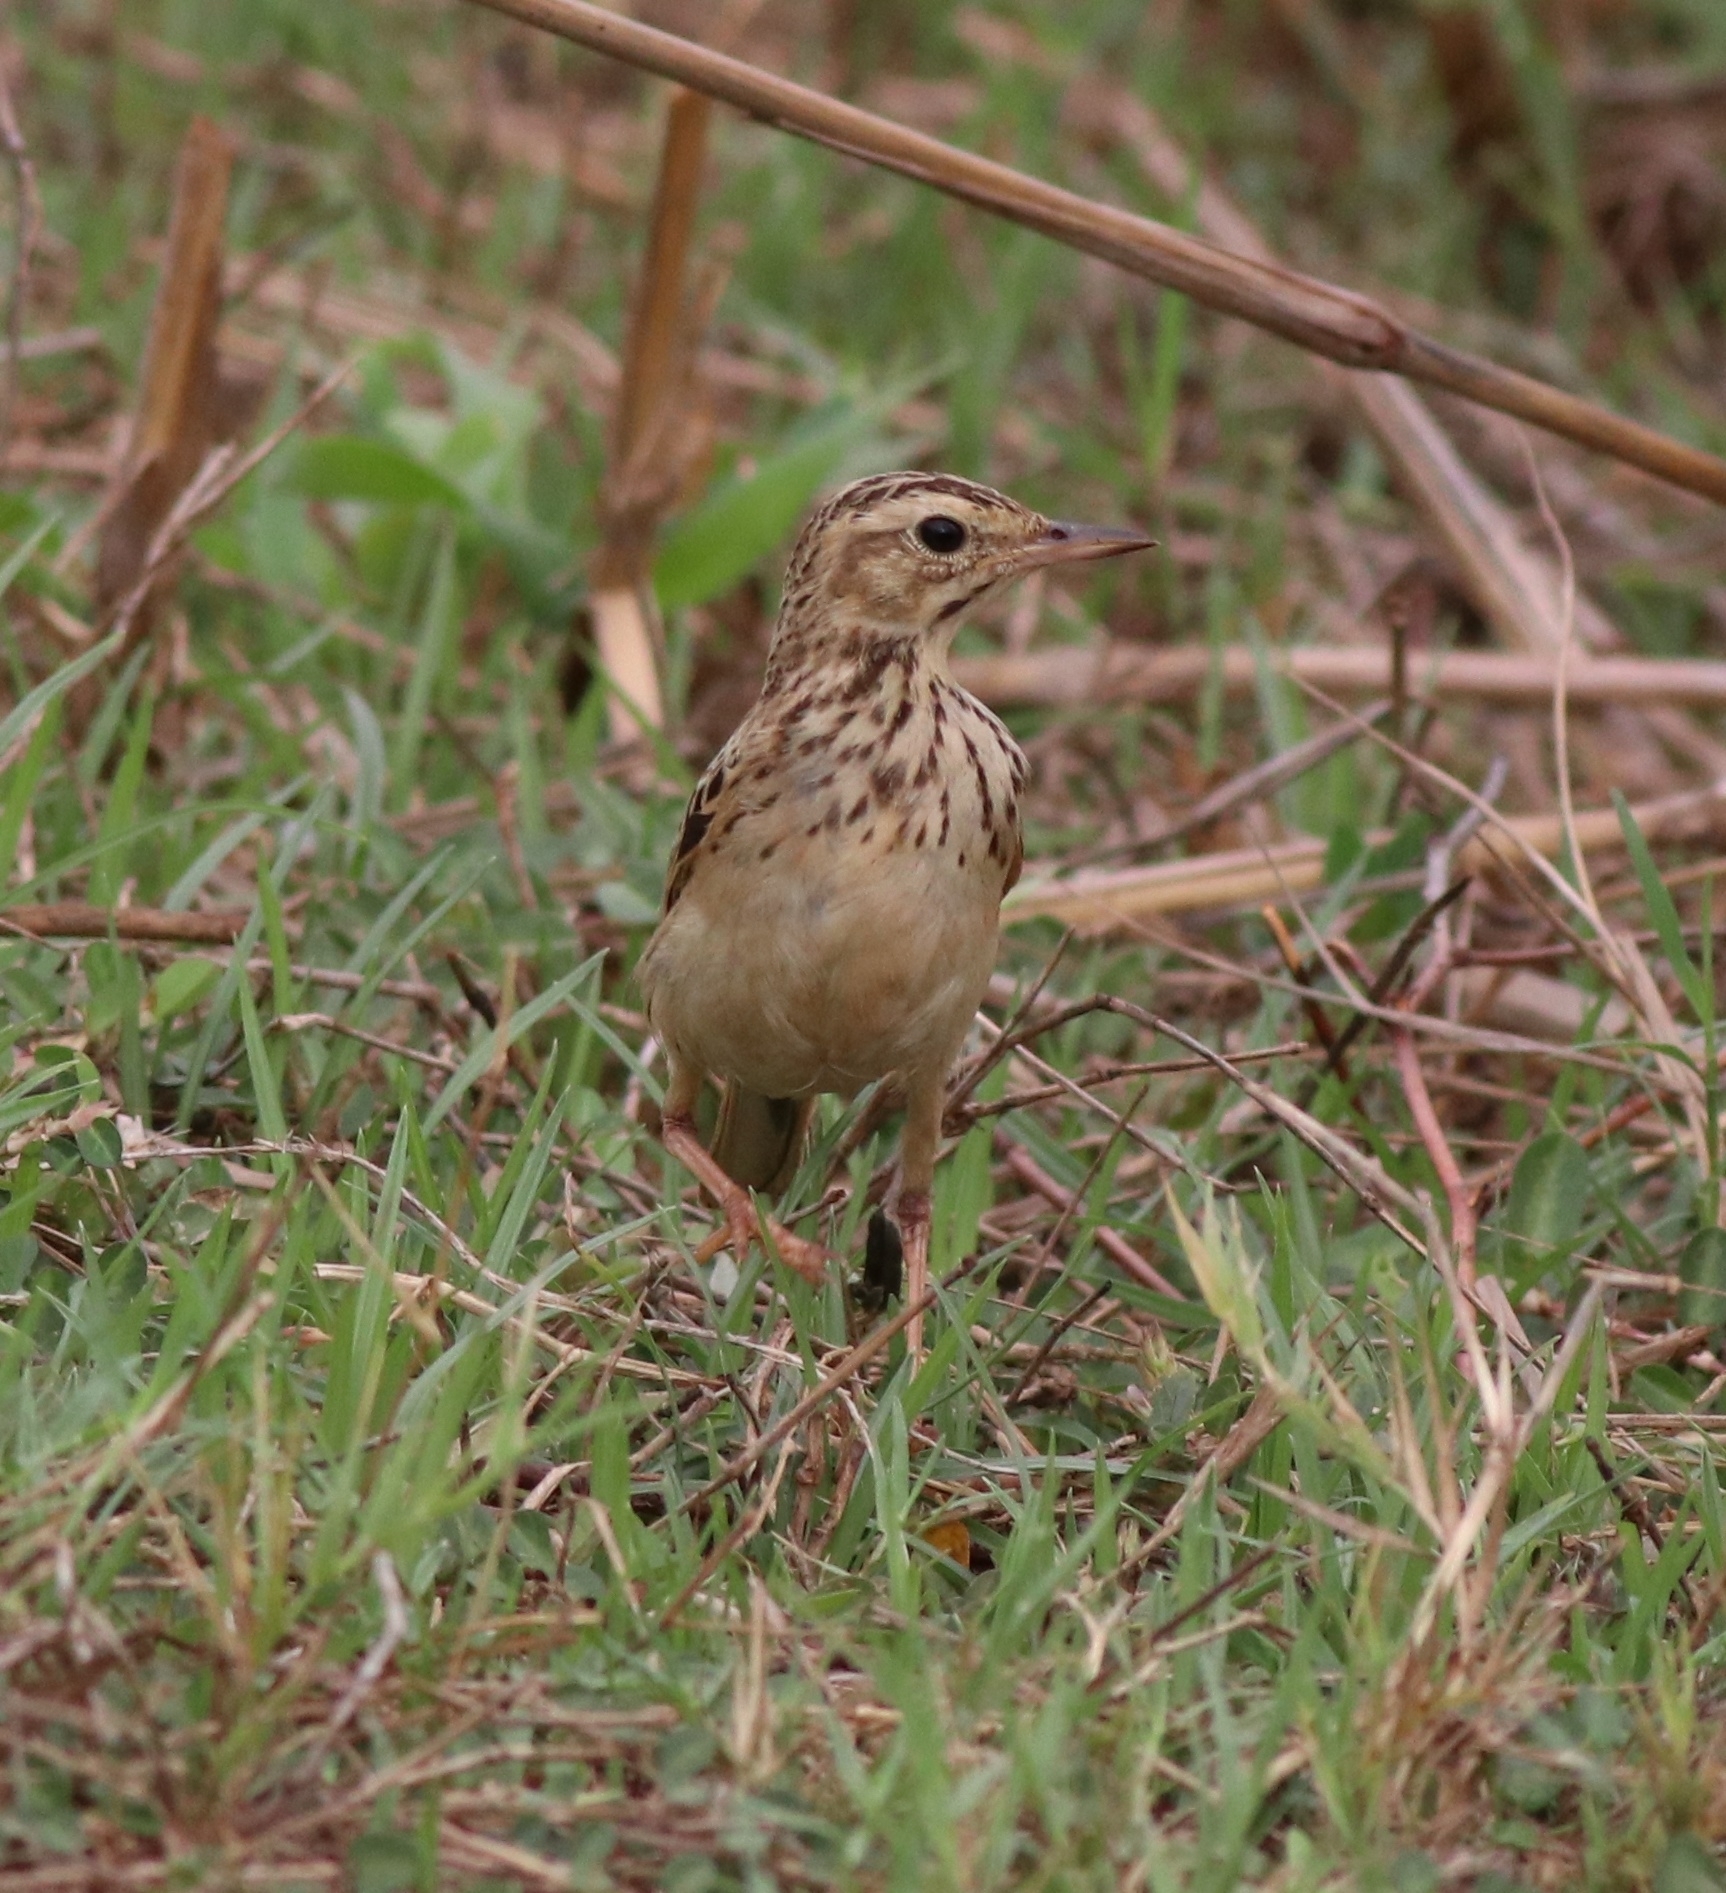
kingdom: Animalia
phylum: Chordata
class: Aves
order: Passeriformes
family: Motacillidae
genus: Anthus
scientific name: Anthus rufulus
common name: Paddyfield pipit
